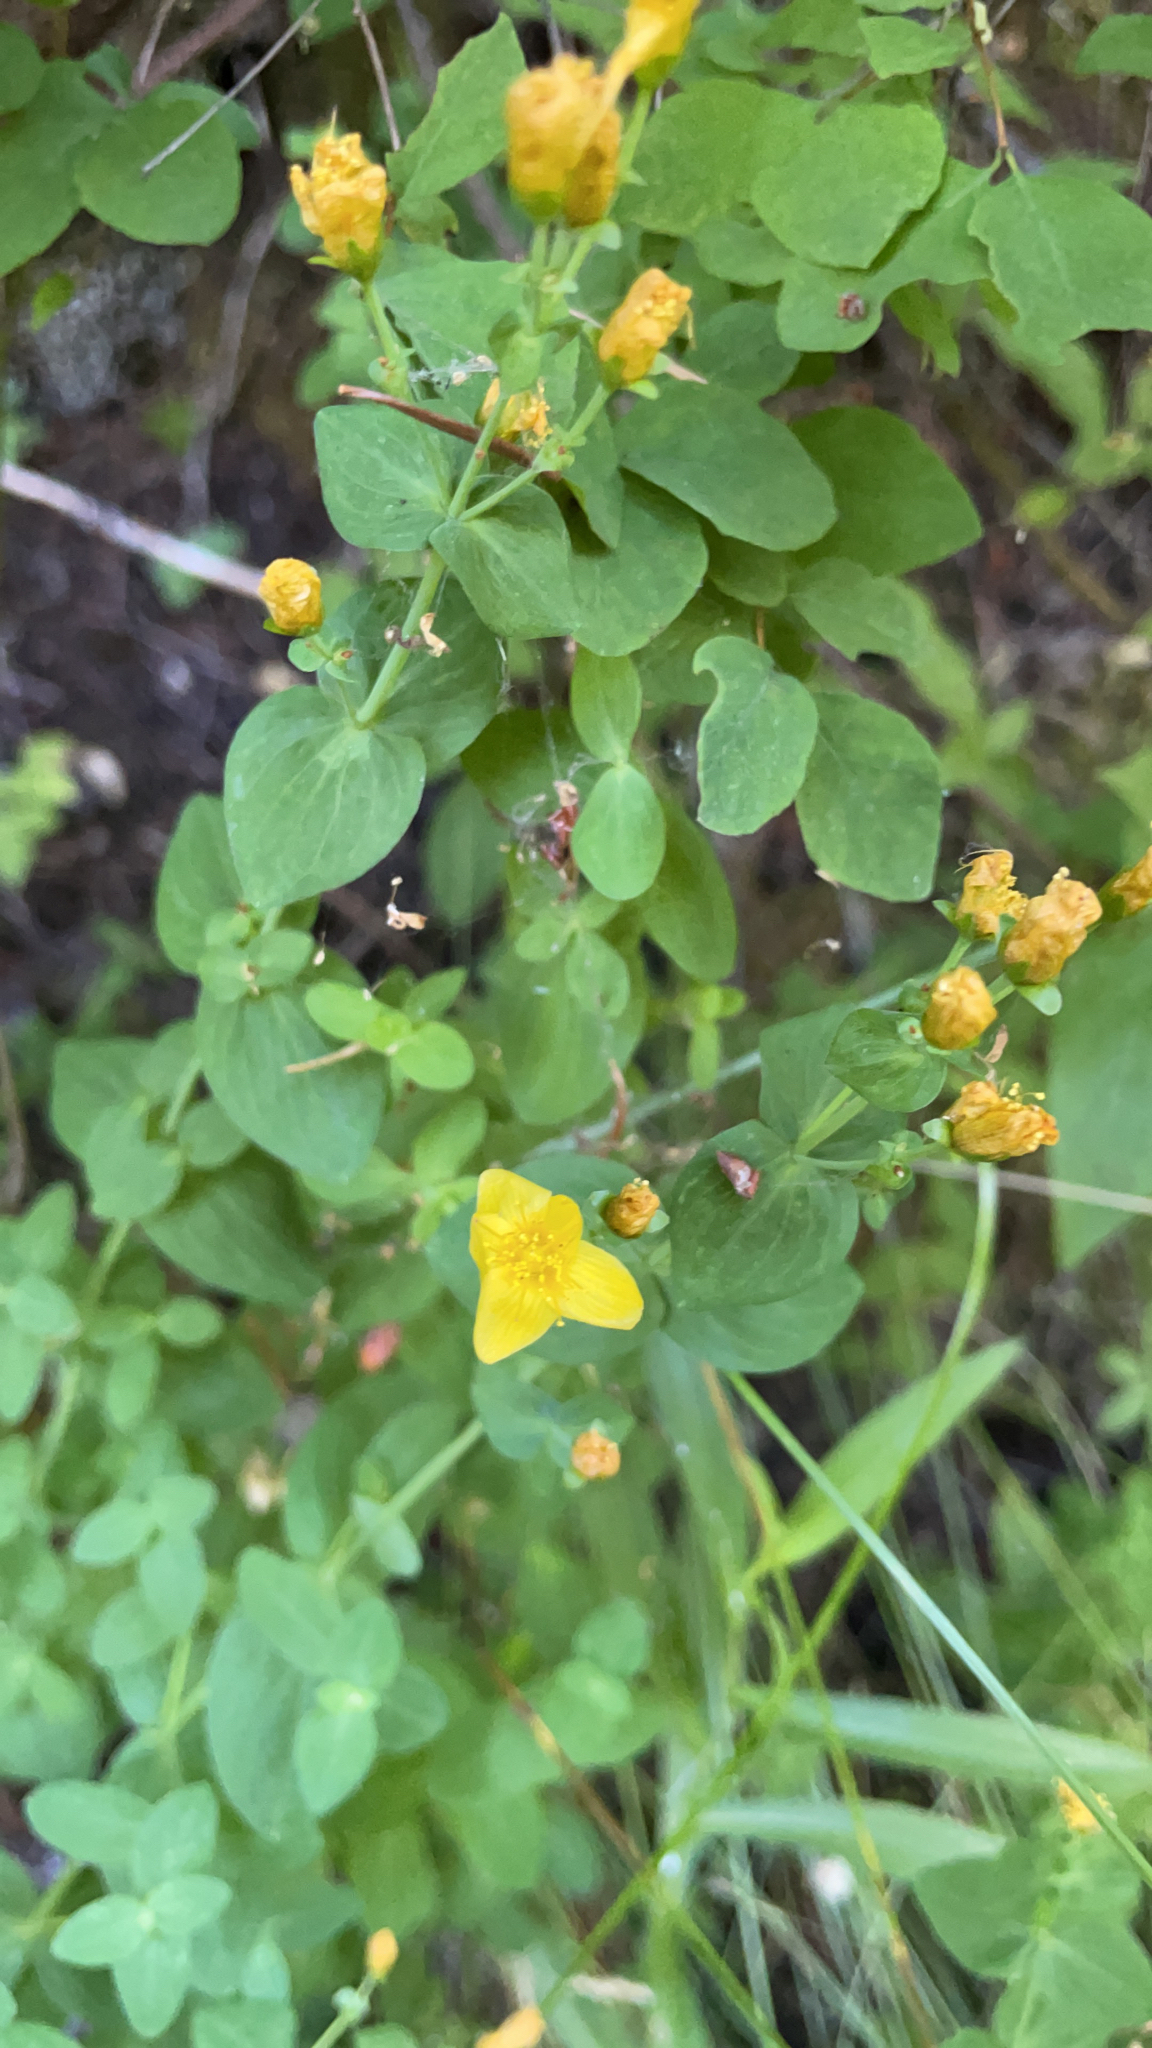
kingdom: Plantae
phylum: Tracheophyta
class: Magnoliopsida
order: Malpighiales
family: Hypericaceae
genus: Hypericum
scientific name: Hypericum scouleri
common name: Scouler's st. john's-wort
